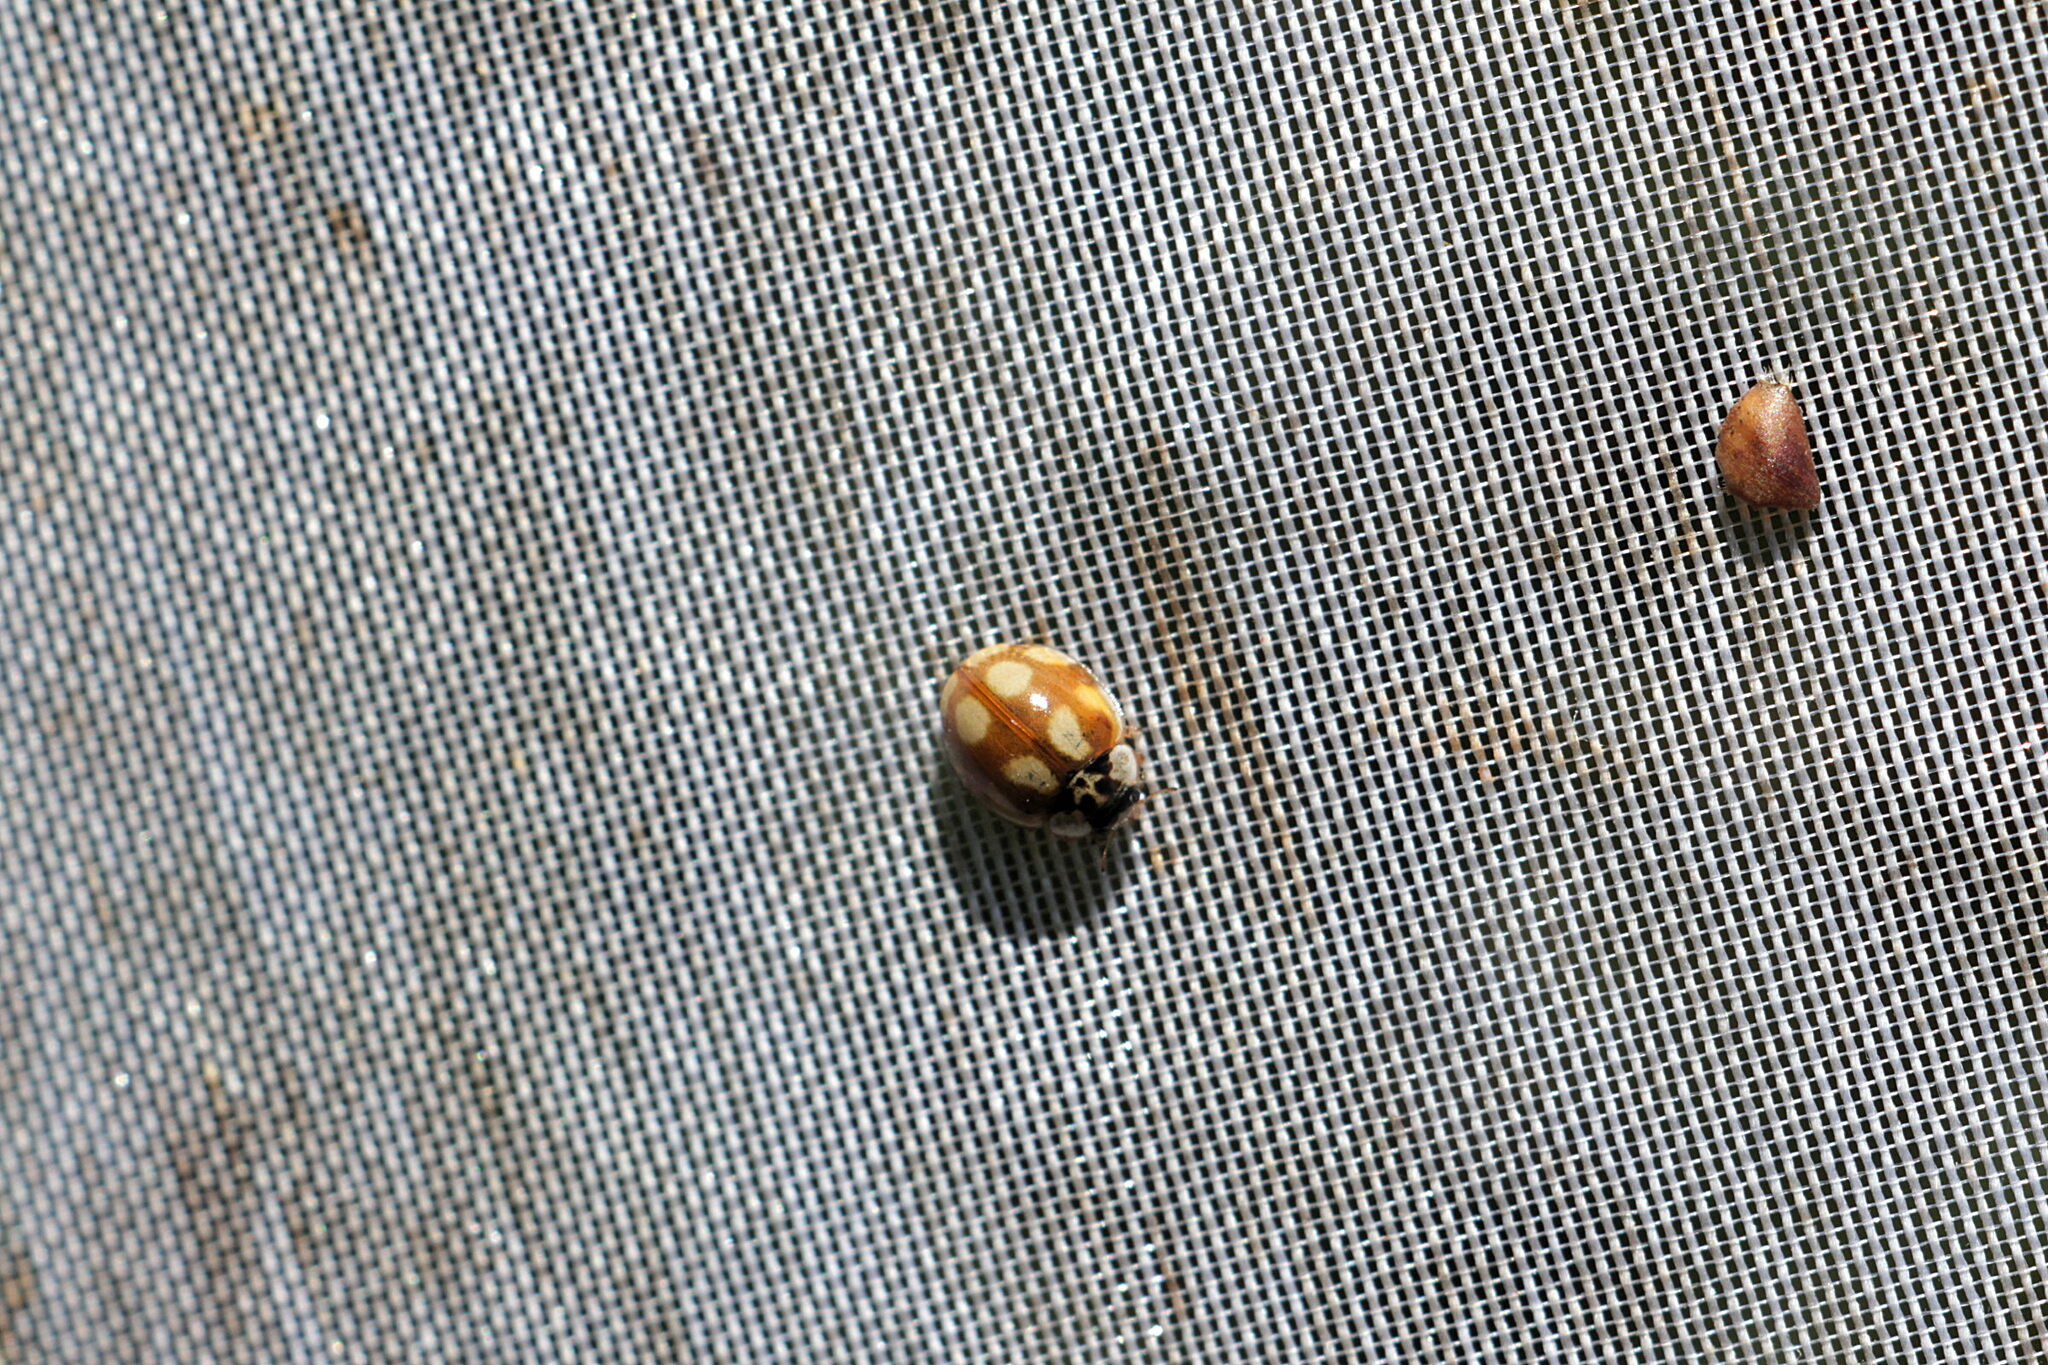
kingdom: Animalia
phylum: Arthropoda
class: Insecta
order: Coleoptera
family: Coccinellidae
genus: Adalia
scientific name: Adalia decempunctata
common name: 10-spot ladybird
